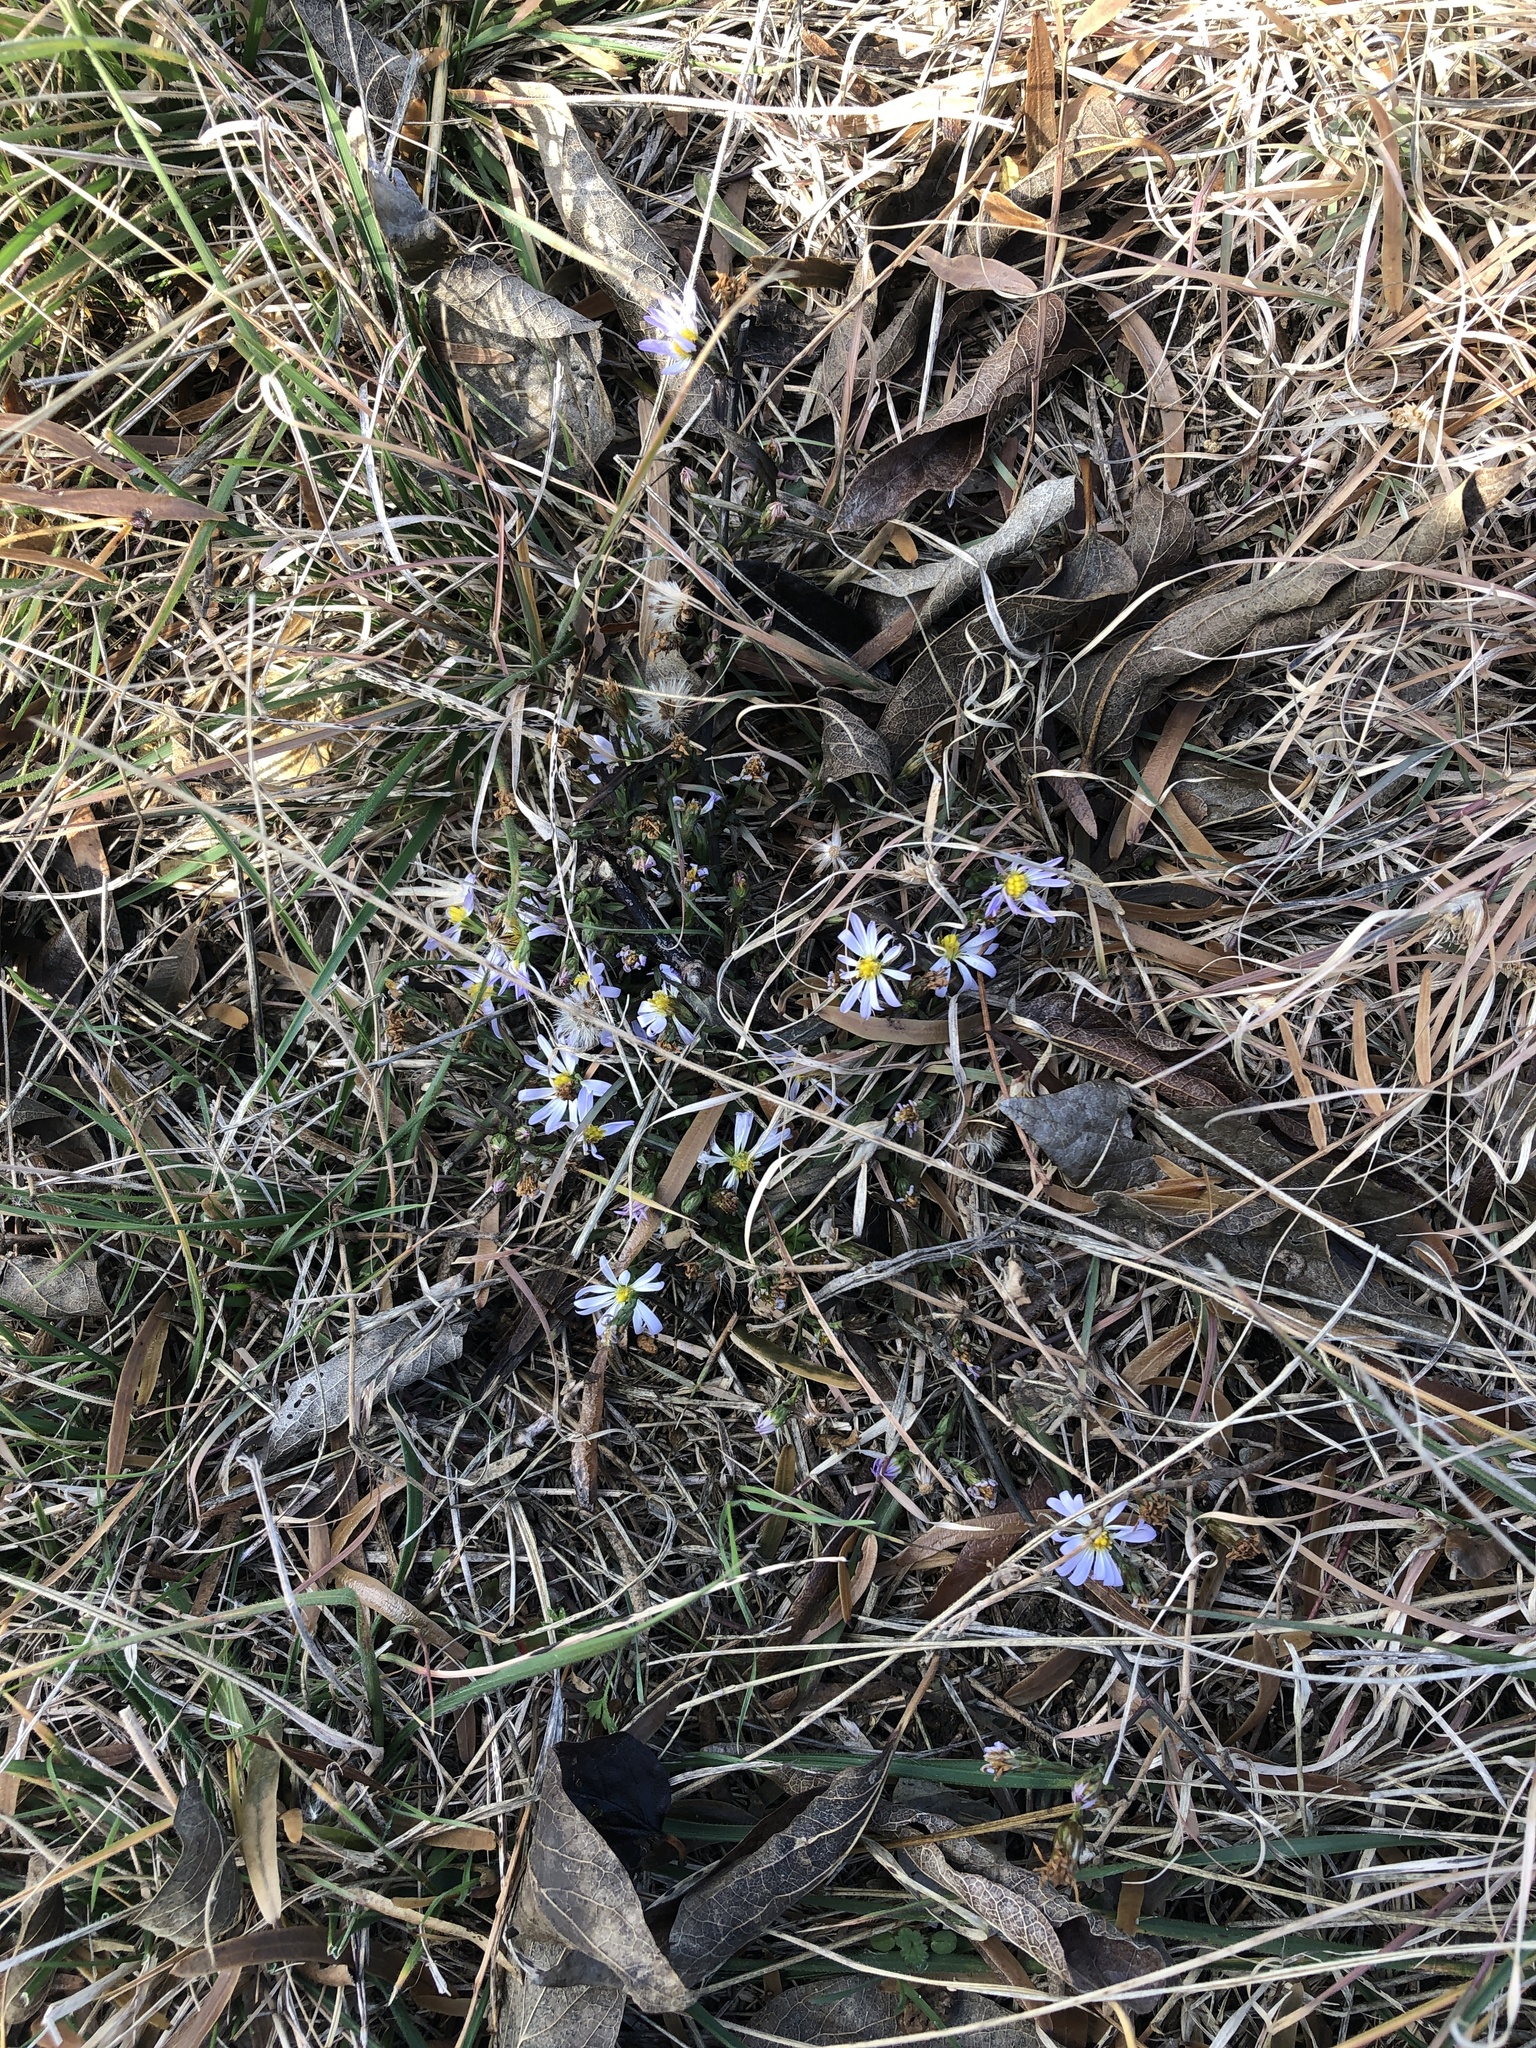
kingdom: Plantae
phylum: Tracheophyta
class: Magnoliopsida
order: Asterales
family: Asteraceae
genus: Symphyotrichum
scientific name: Symphyotrichum divaricatum
